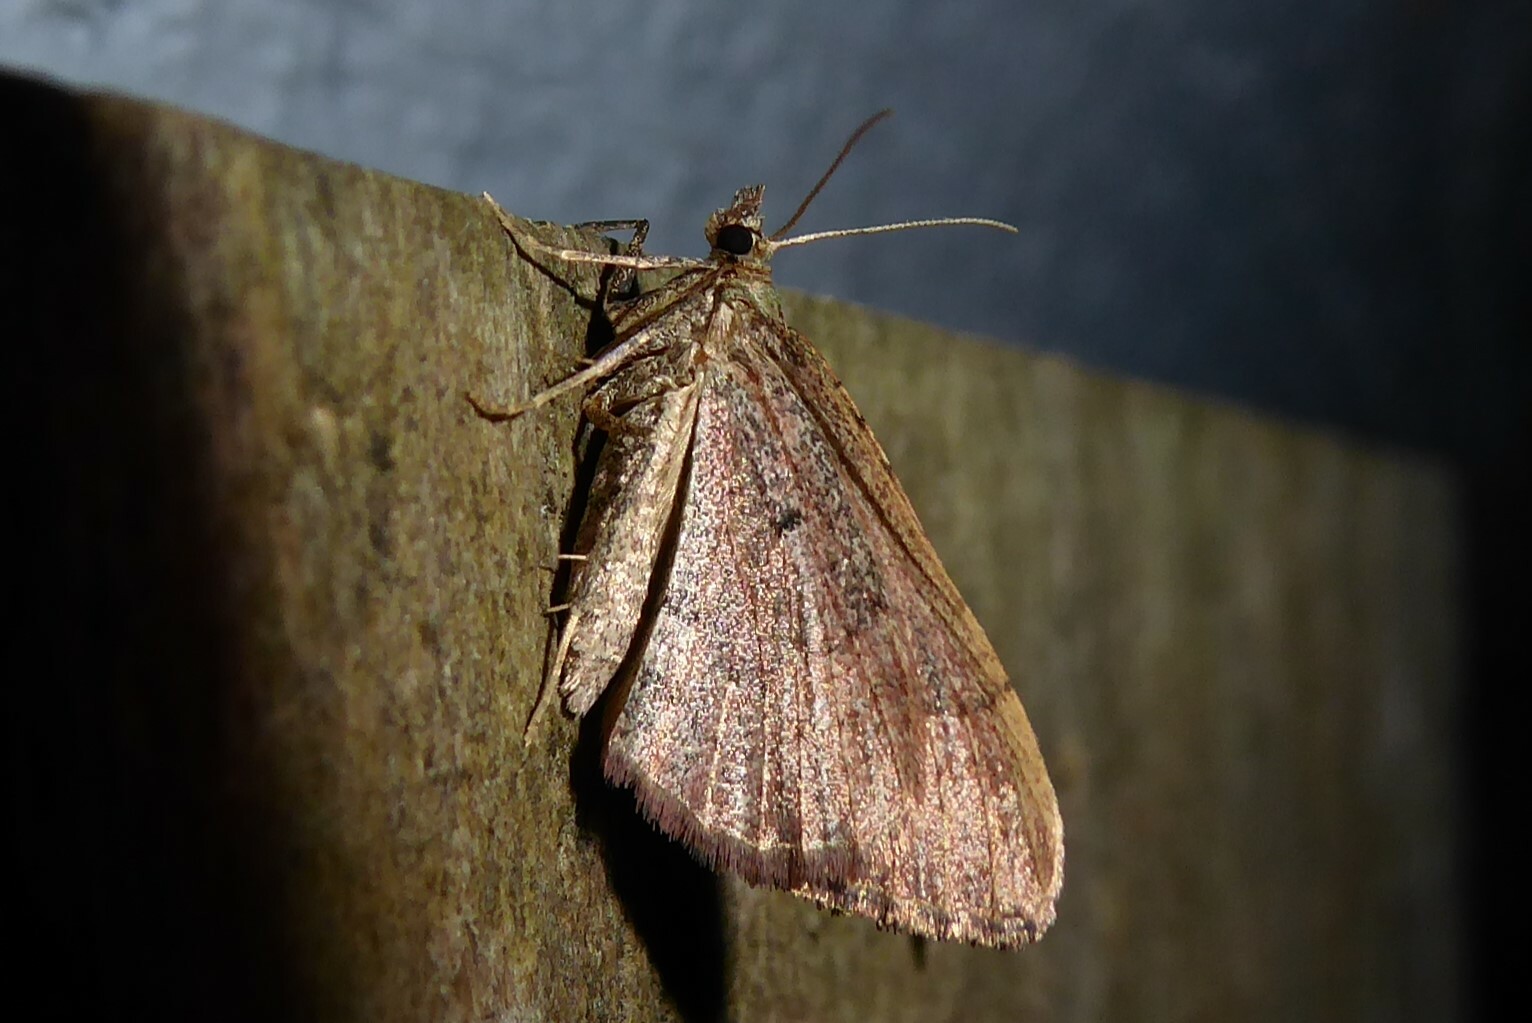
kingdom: Animalia
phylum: Arthropoda
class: Insecta
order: Lepidoptera
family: Geometridae
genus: Epyaxa
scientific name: Epyaxa rosearia
